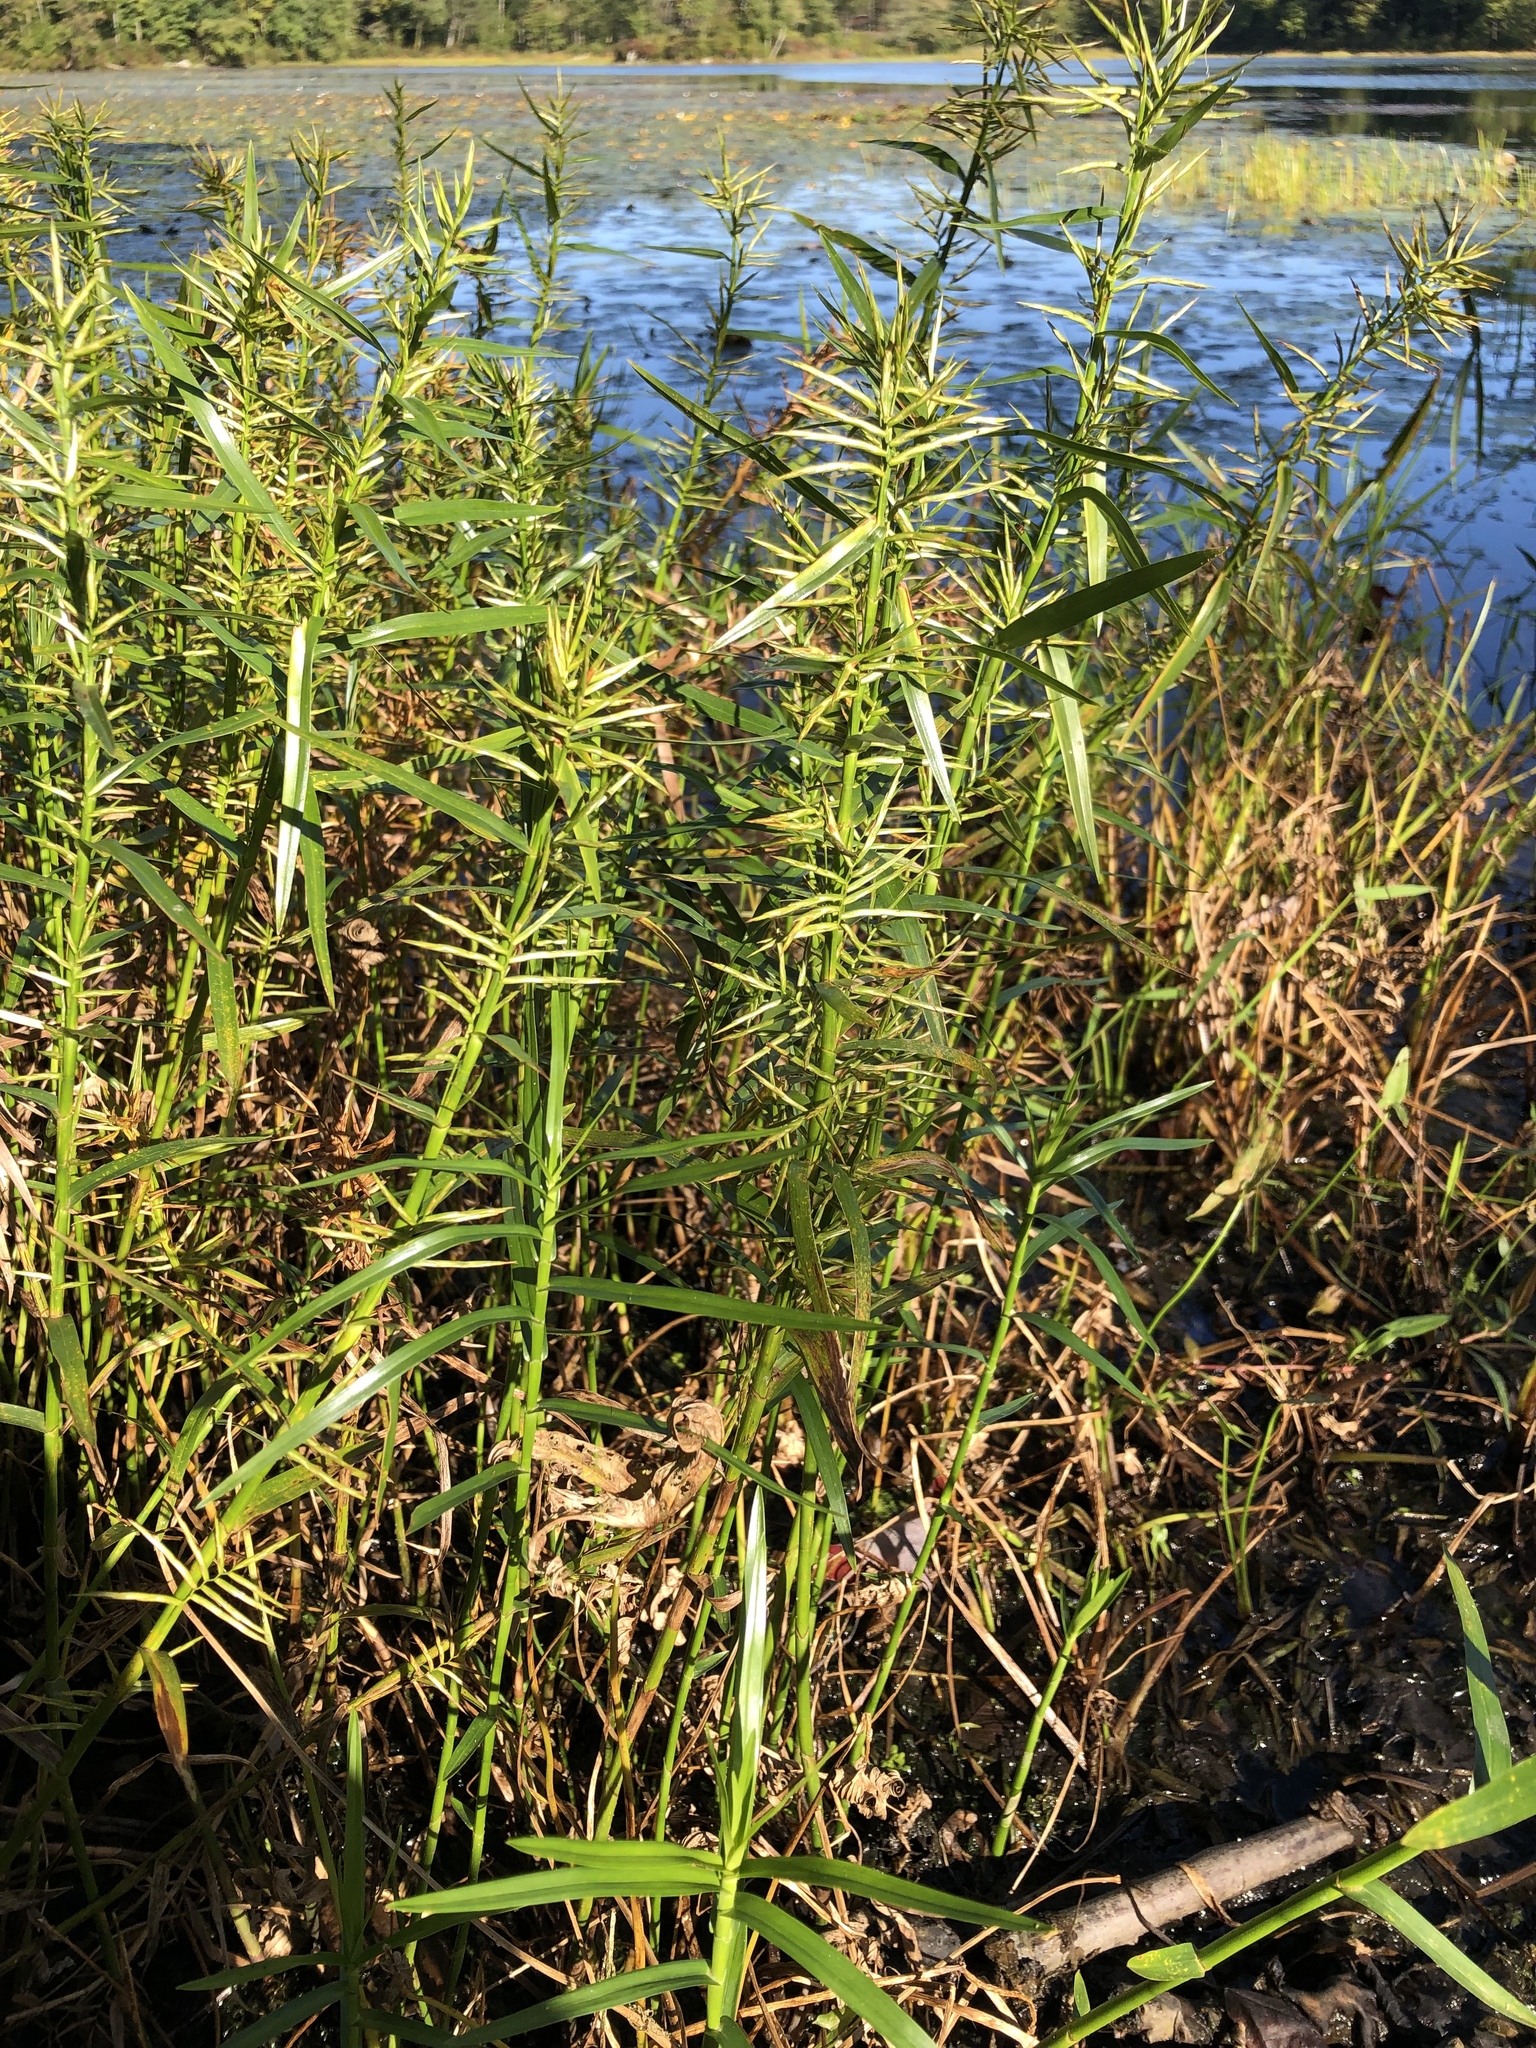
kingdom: Plantae
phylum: Tracheophyta
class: Liliopsida
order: Poales
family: Cyperaceae
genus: Dulichium
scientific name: Dulichium arundinaceum
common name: Three-way sedge
